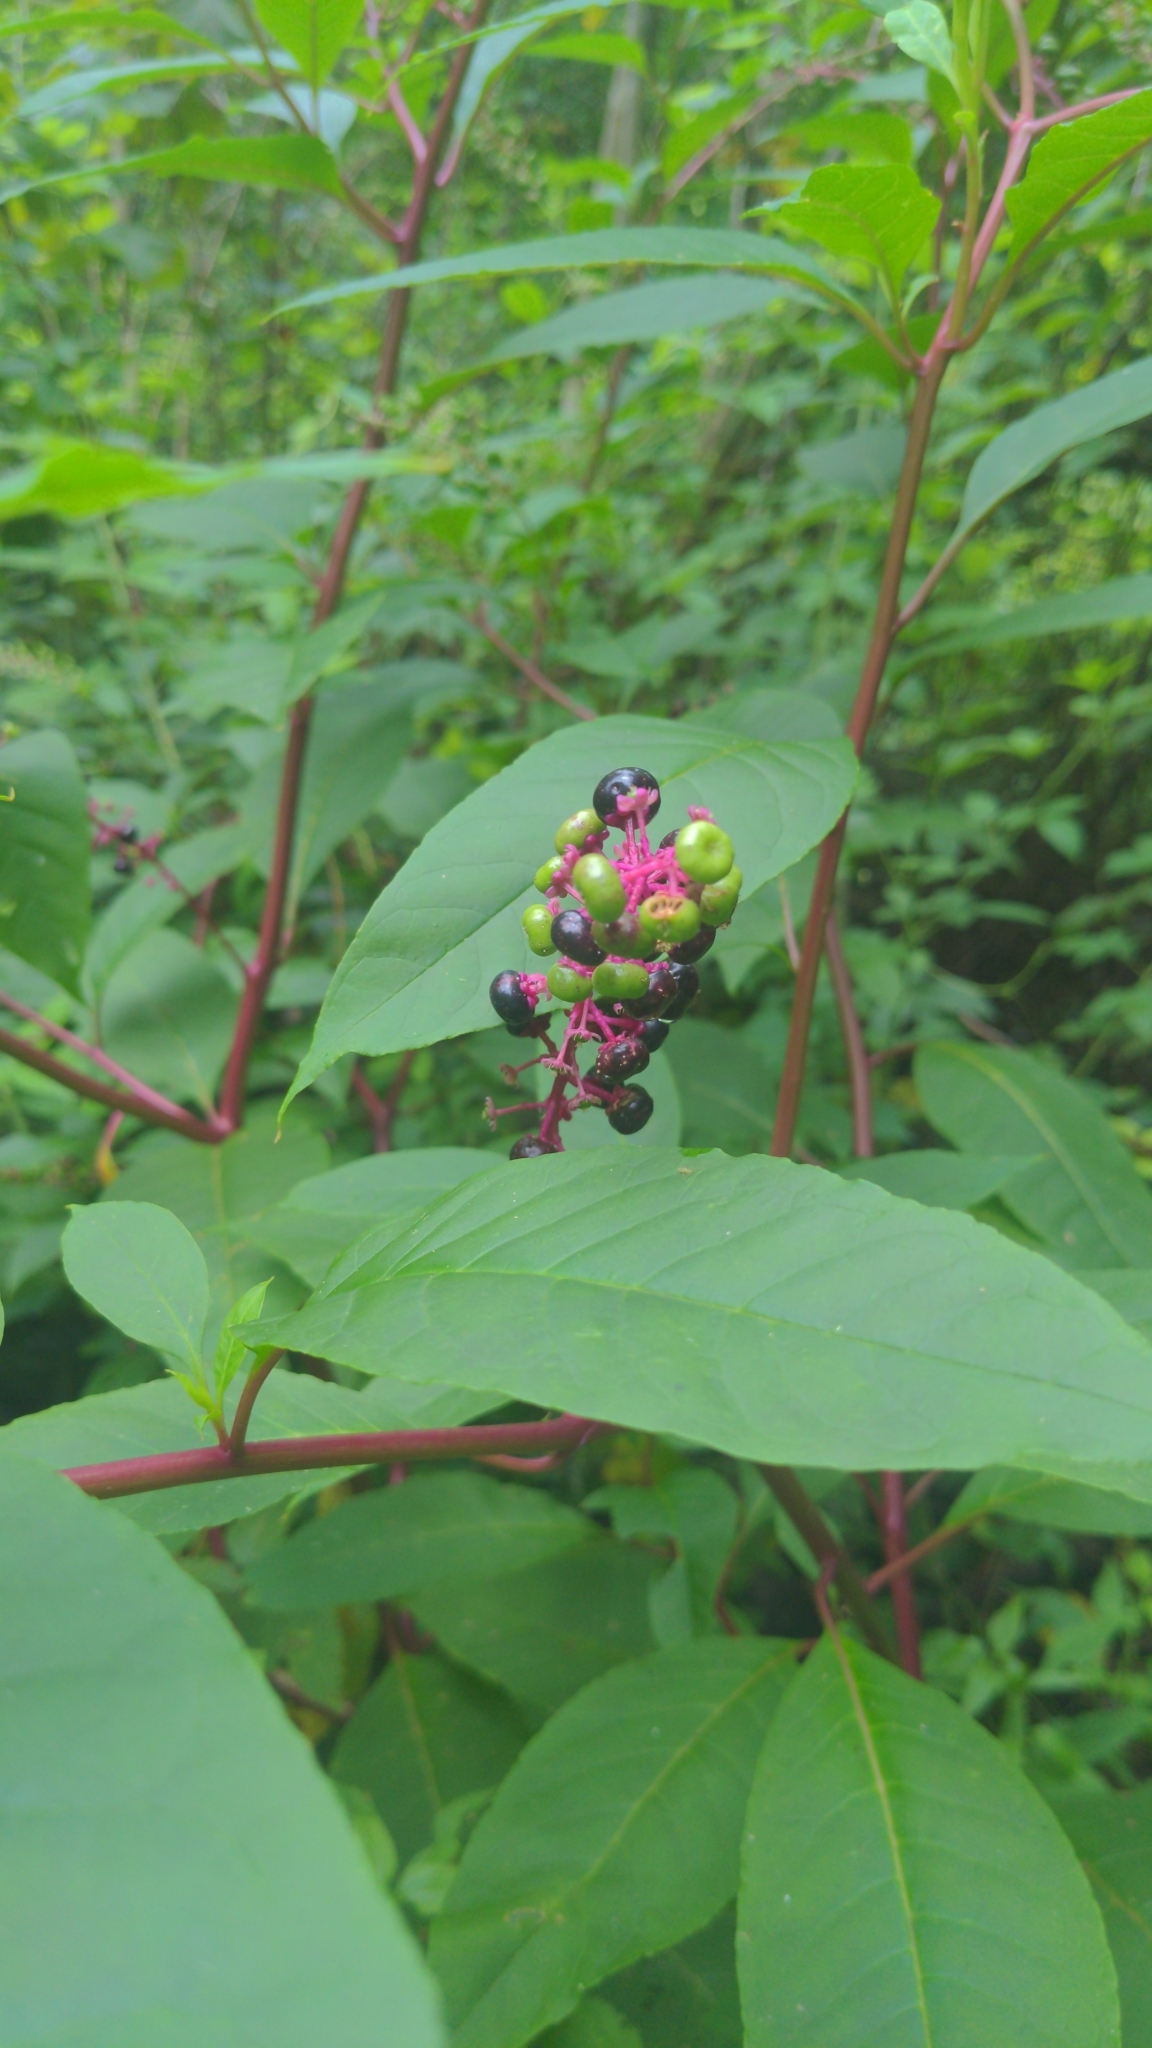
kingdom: Plantae
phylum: Tracheophyta
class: Magnoliopsida
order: Caryophyllales
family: Phytolaccaceae
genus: Phytolacca
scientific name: Phytolacca americana
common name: American pokeweed
